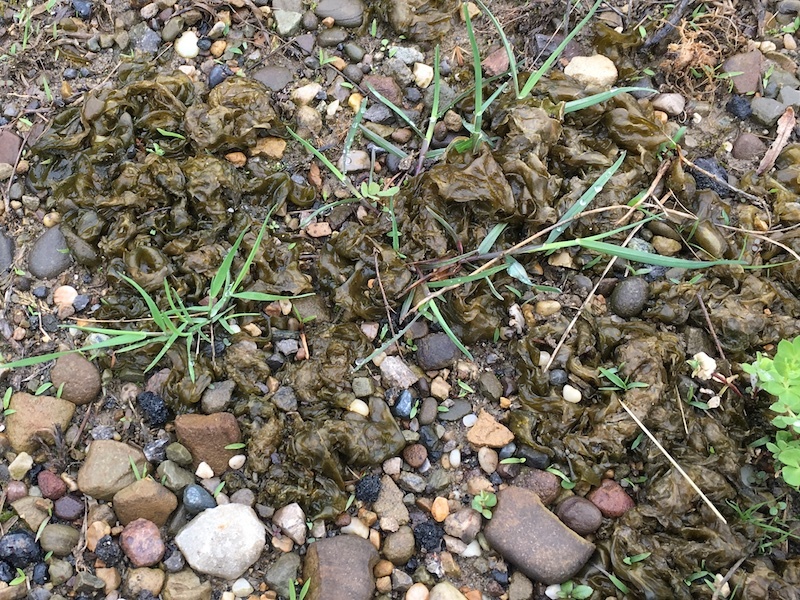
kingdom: Bacteria
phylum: Cyanobacteria
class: Cyanobacteriia
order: Cyanobacteriales
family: Nostocaceae
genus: Nostoc
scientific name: Nostoc commune
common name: Star jelly
